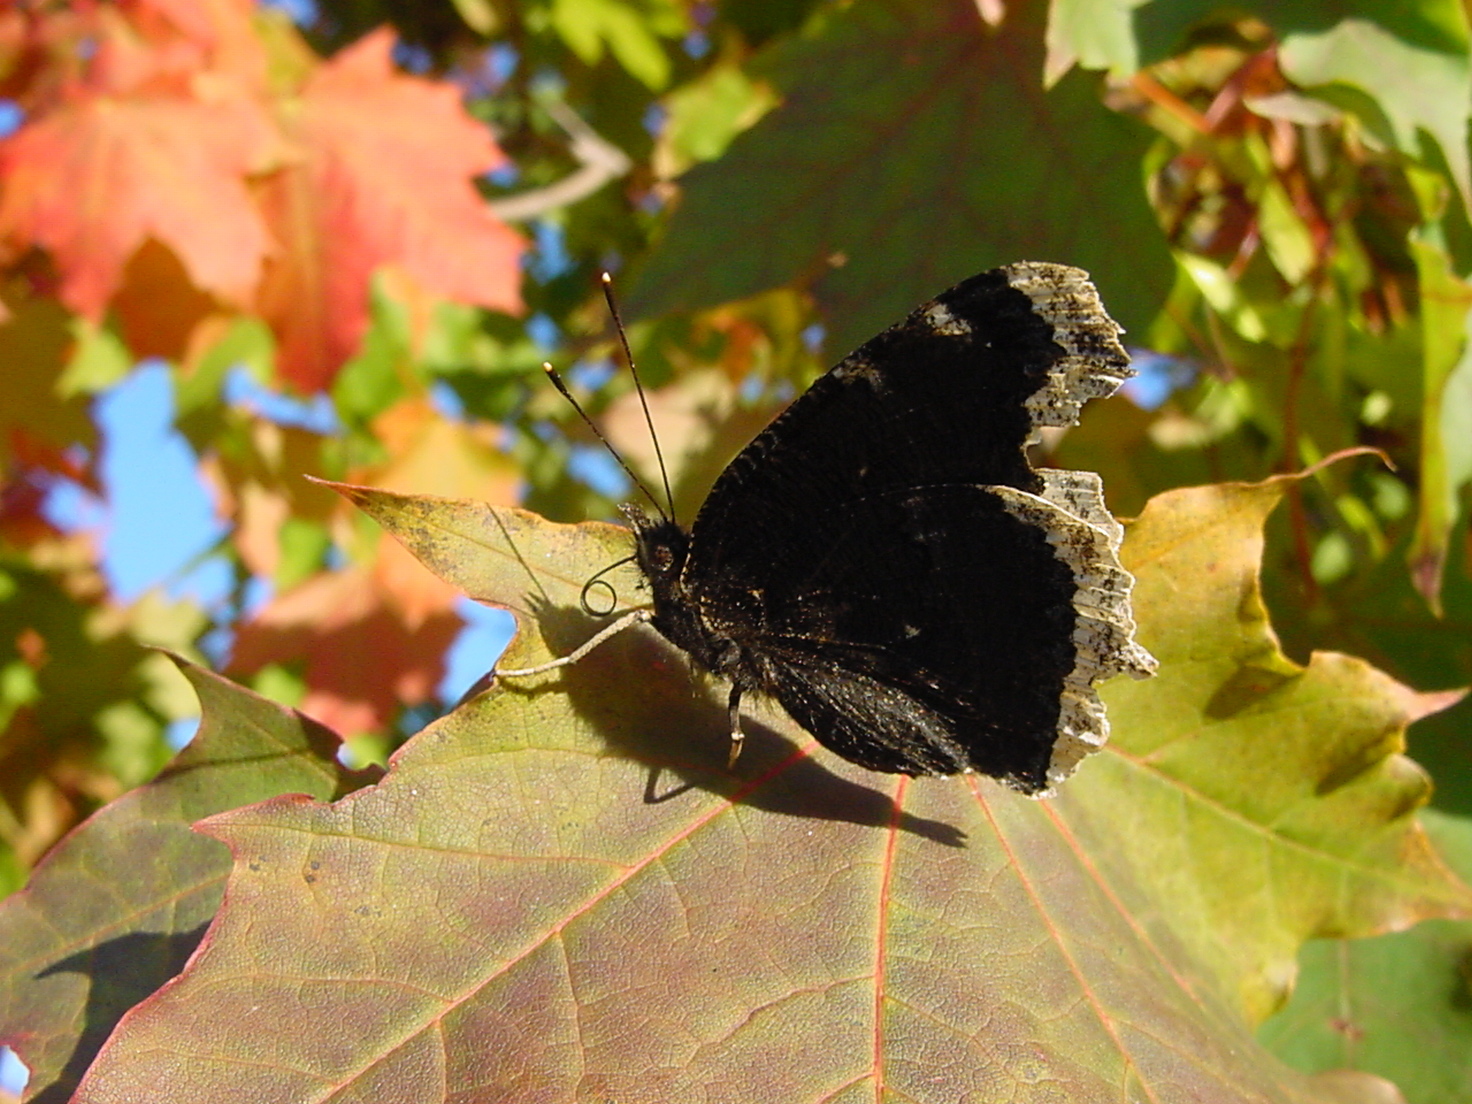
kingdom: Animalia
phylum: Arthropoda
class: Insecta
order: Lepidoptera
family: Nymphalidae
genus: Nymphalis
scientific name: Nymphalis antiopa
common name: Camberwell beauty
